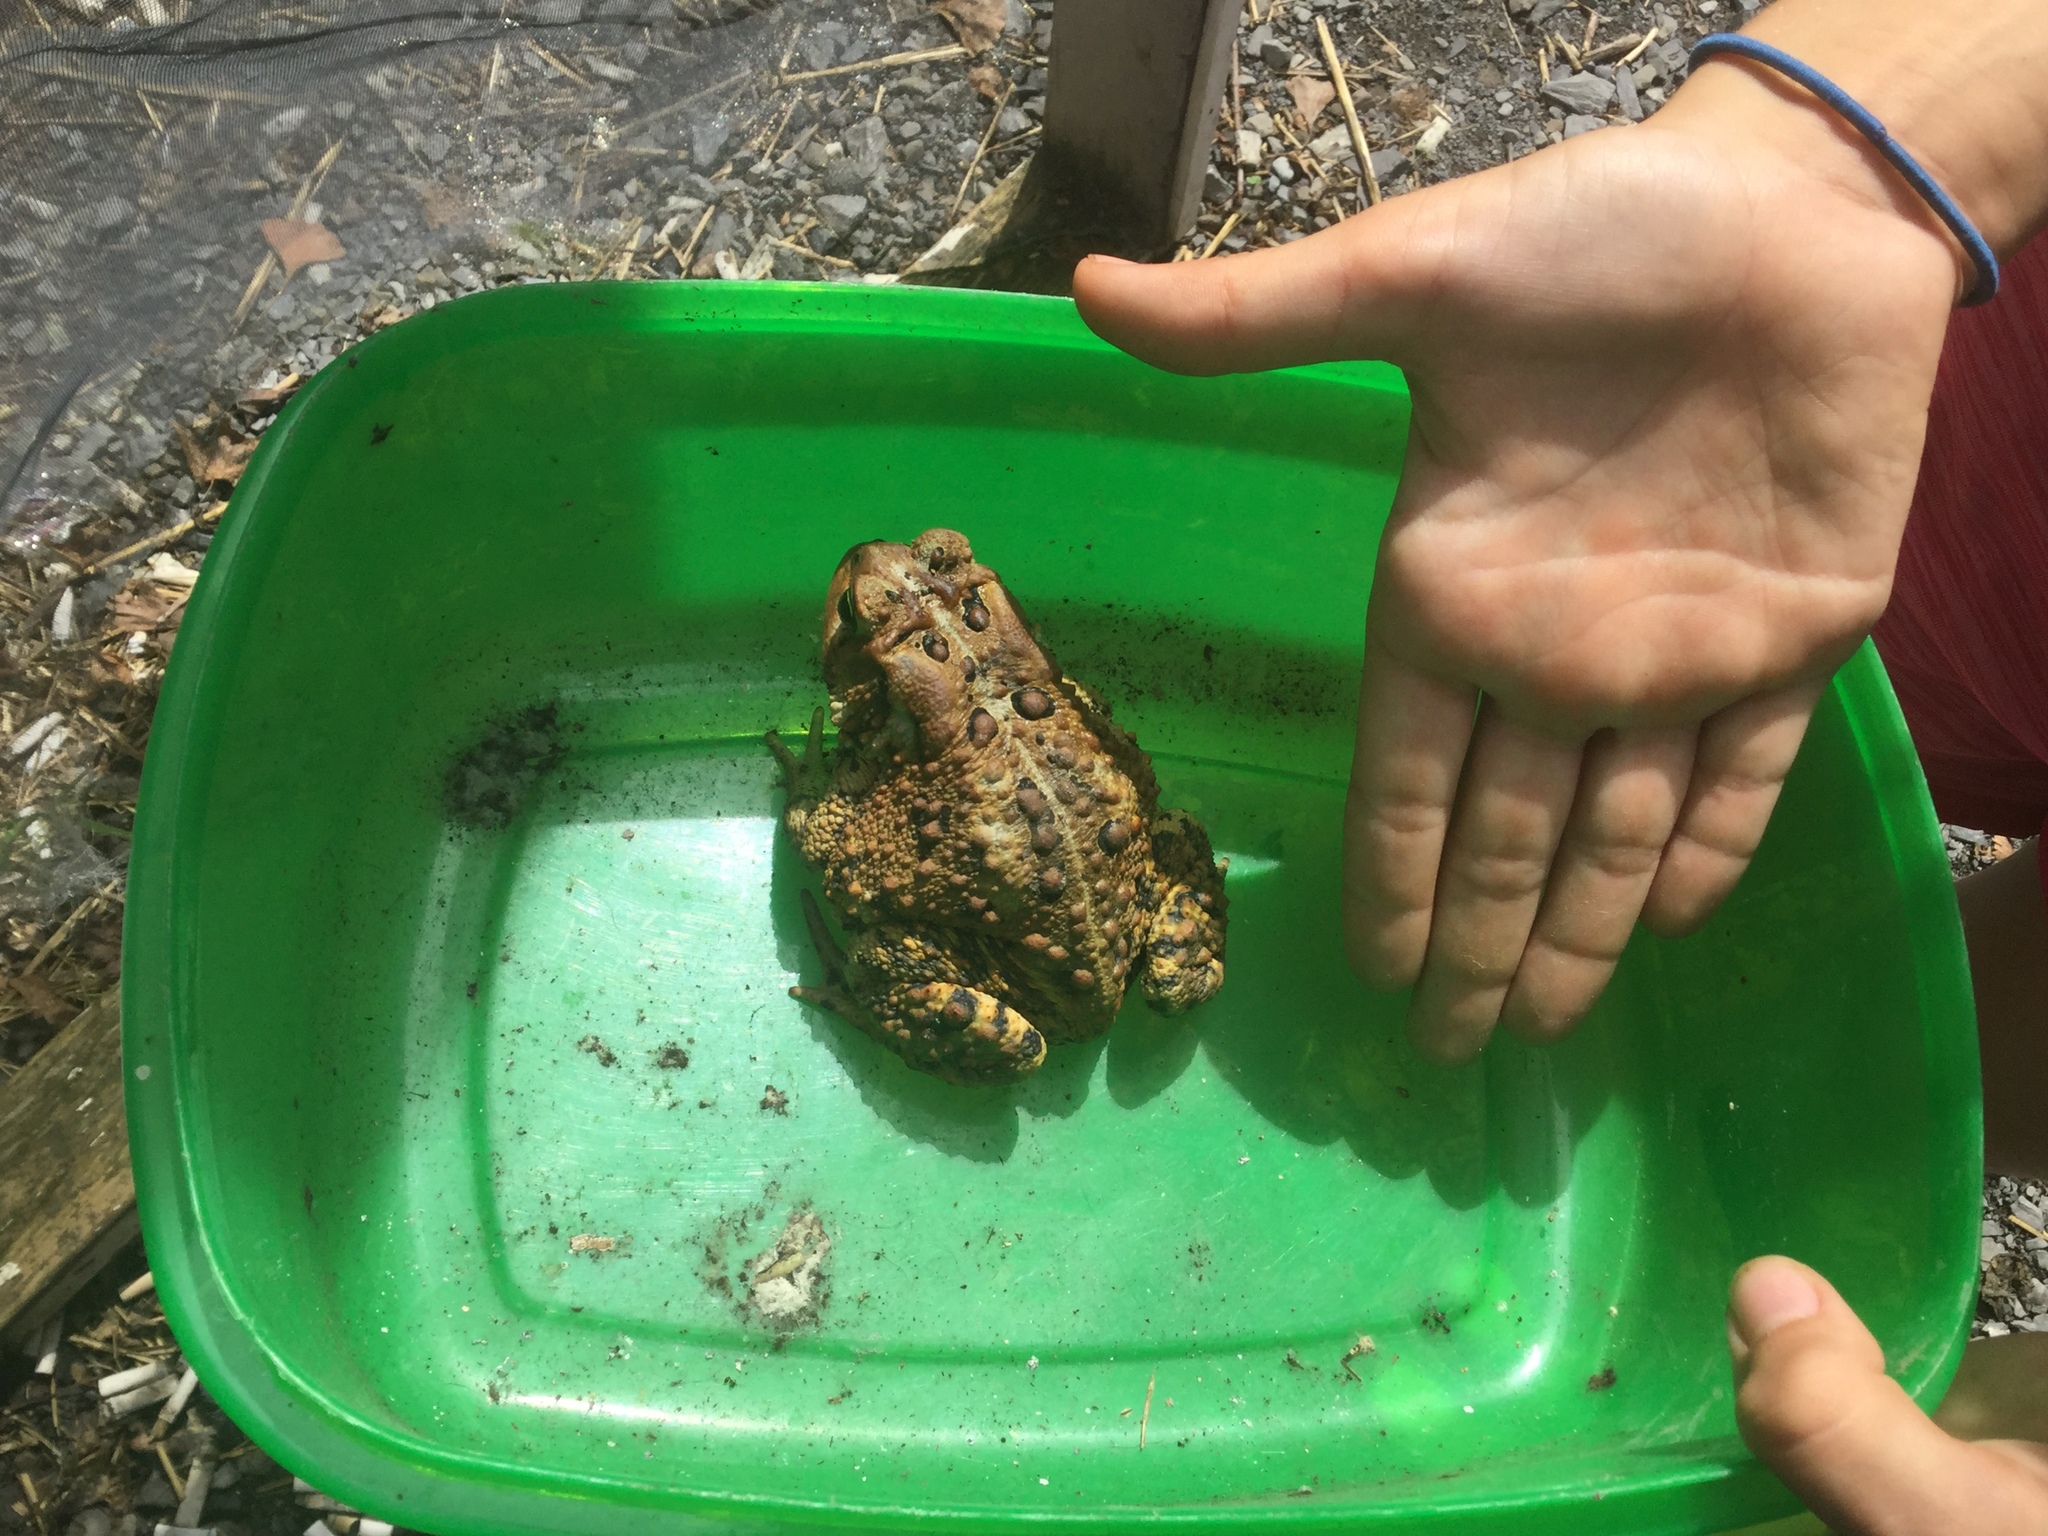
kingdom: Animalia
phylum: Chordata
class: Amphibia
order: Anura
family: Bufonidae
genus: Anaxyrus
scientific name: Anaxyrus americanus
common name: American toad
